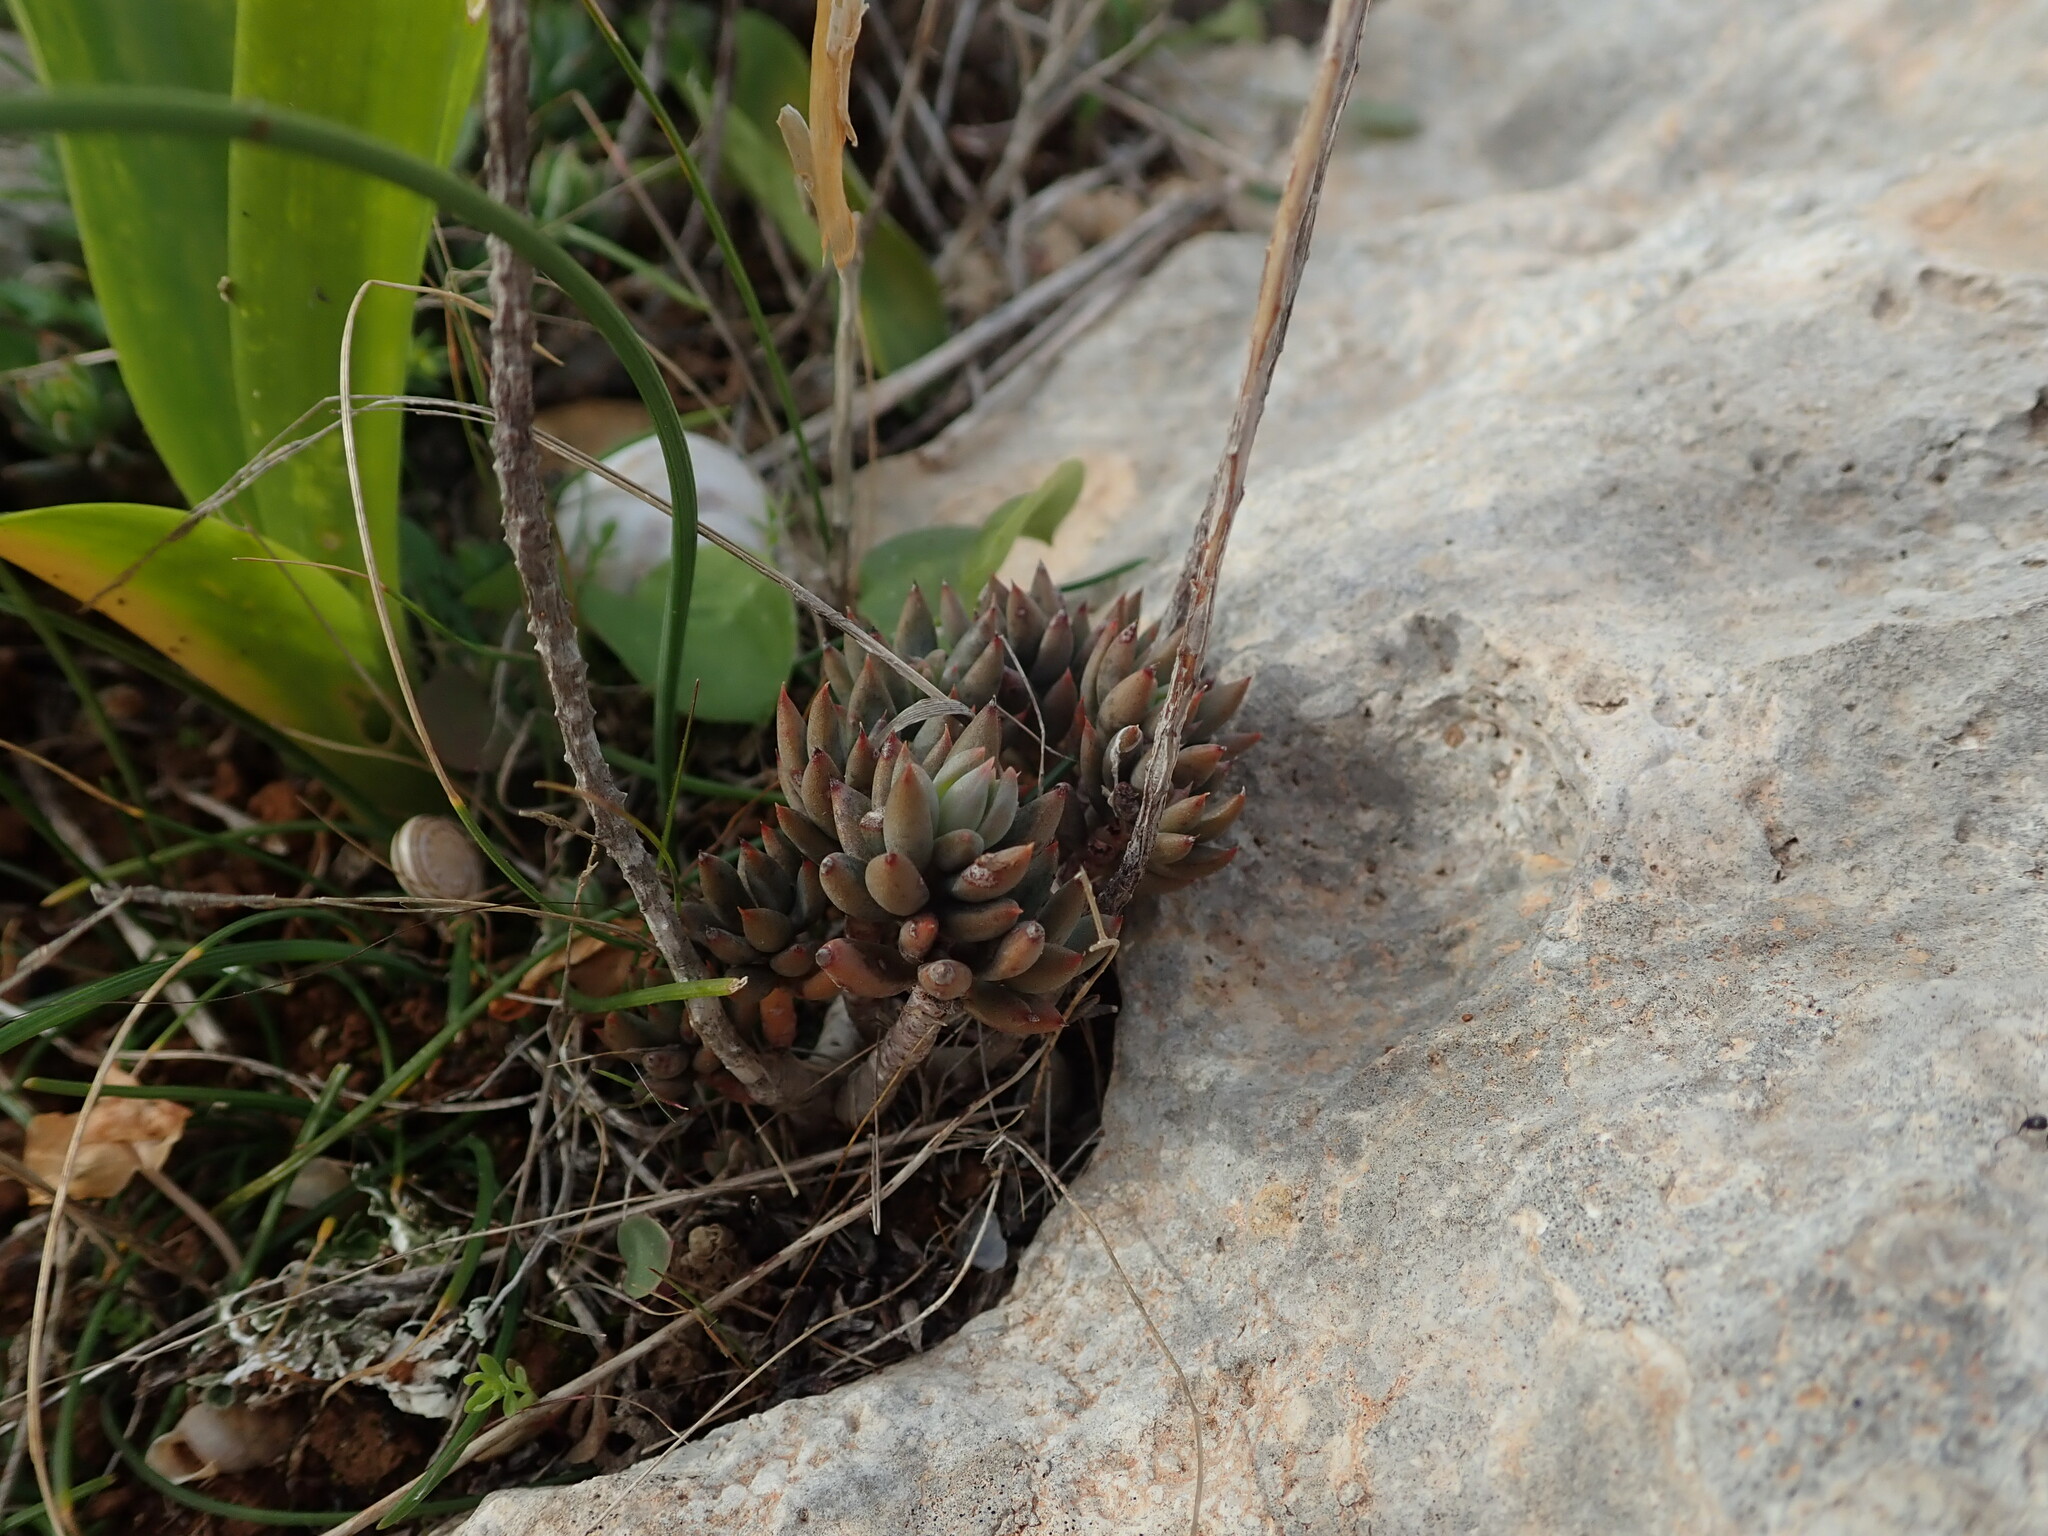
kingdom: Plantae
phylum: Tracheophyta
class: Magnoliopsida
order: Saxifragales
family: Crassulaceae
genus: Petrosedum
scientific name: Petrosedum sediforme
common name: Pale stonecrop
